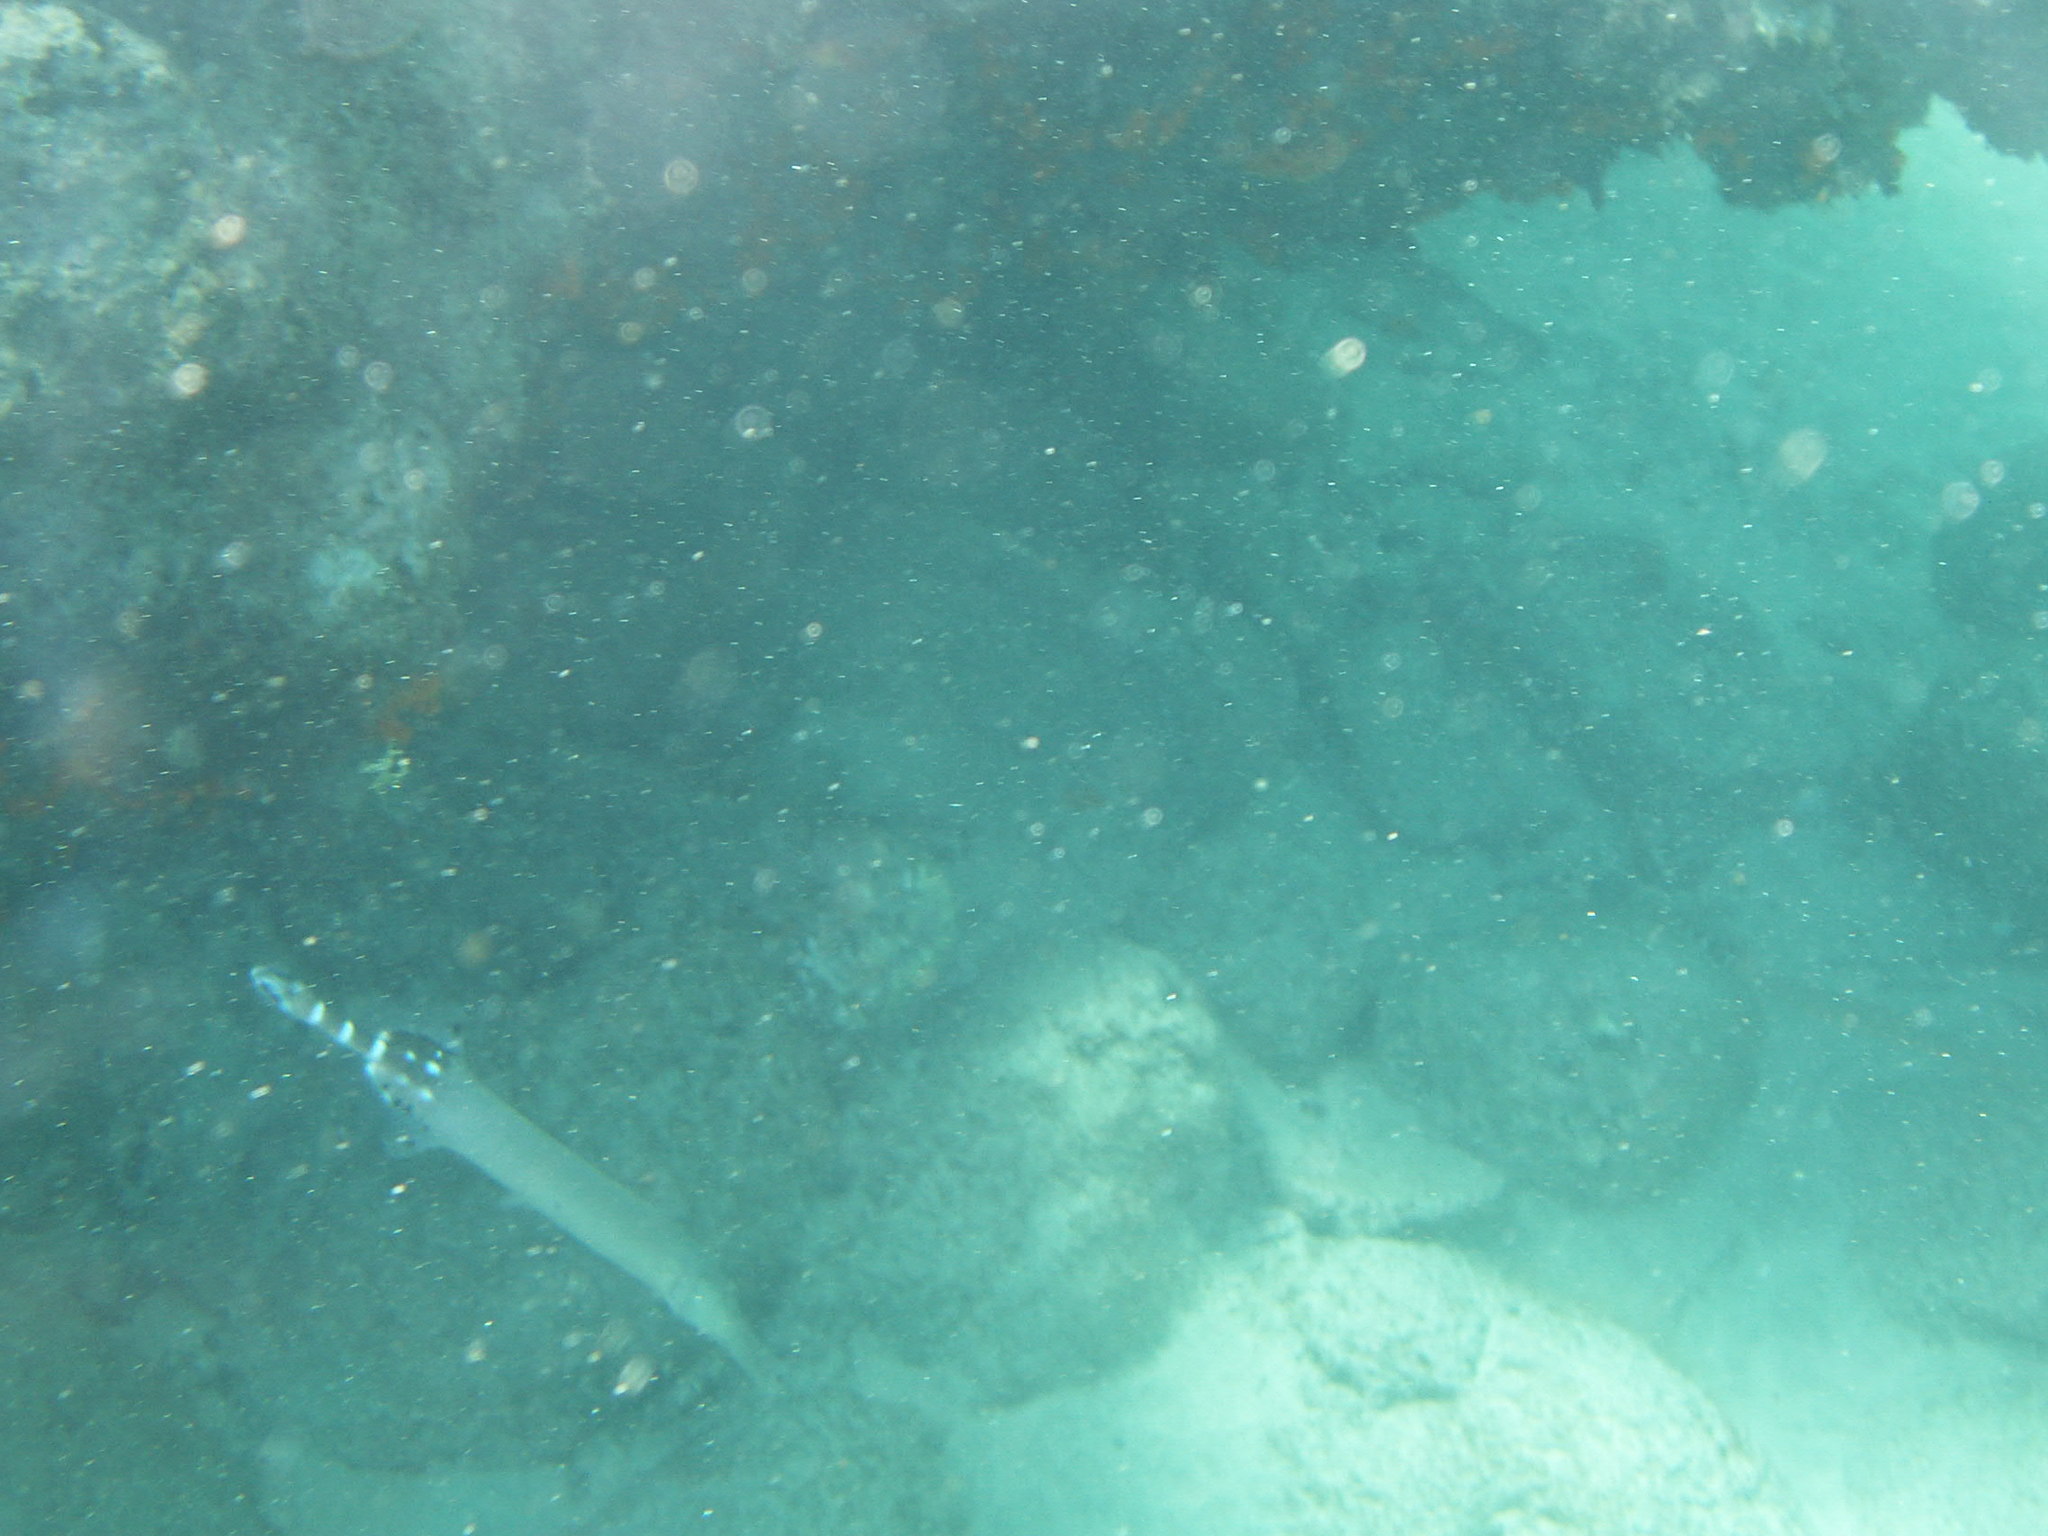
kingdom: Animalia
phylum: Chordata
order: Syngnathiformes
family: Aulostomidae
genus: Aulostomus
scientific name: Aulostomus strigosus
